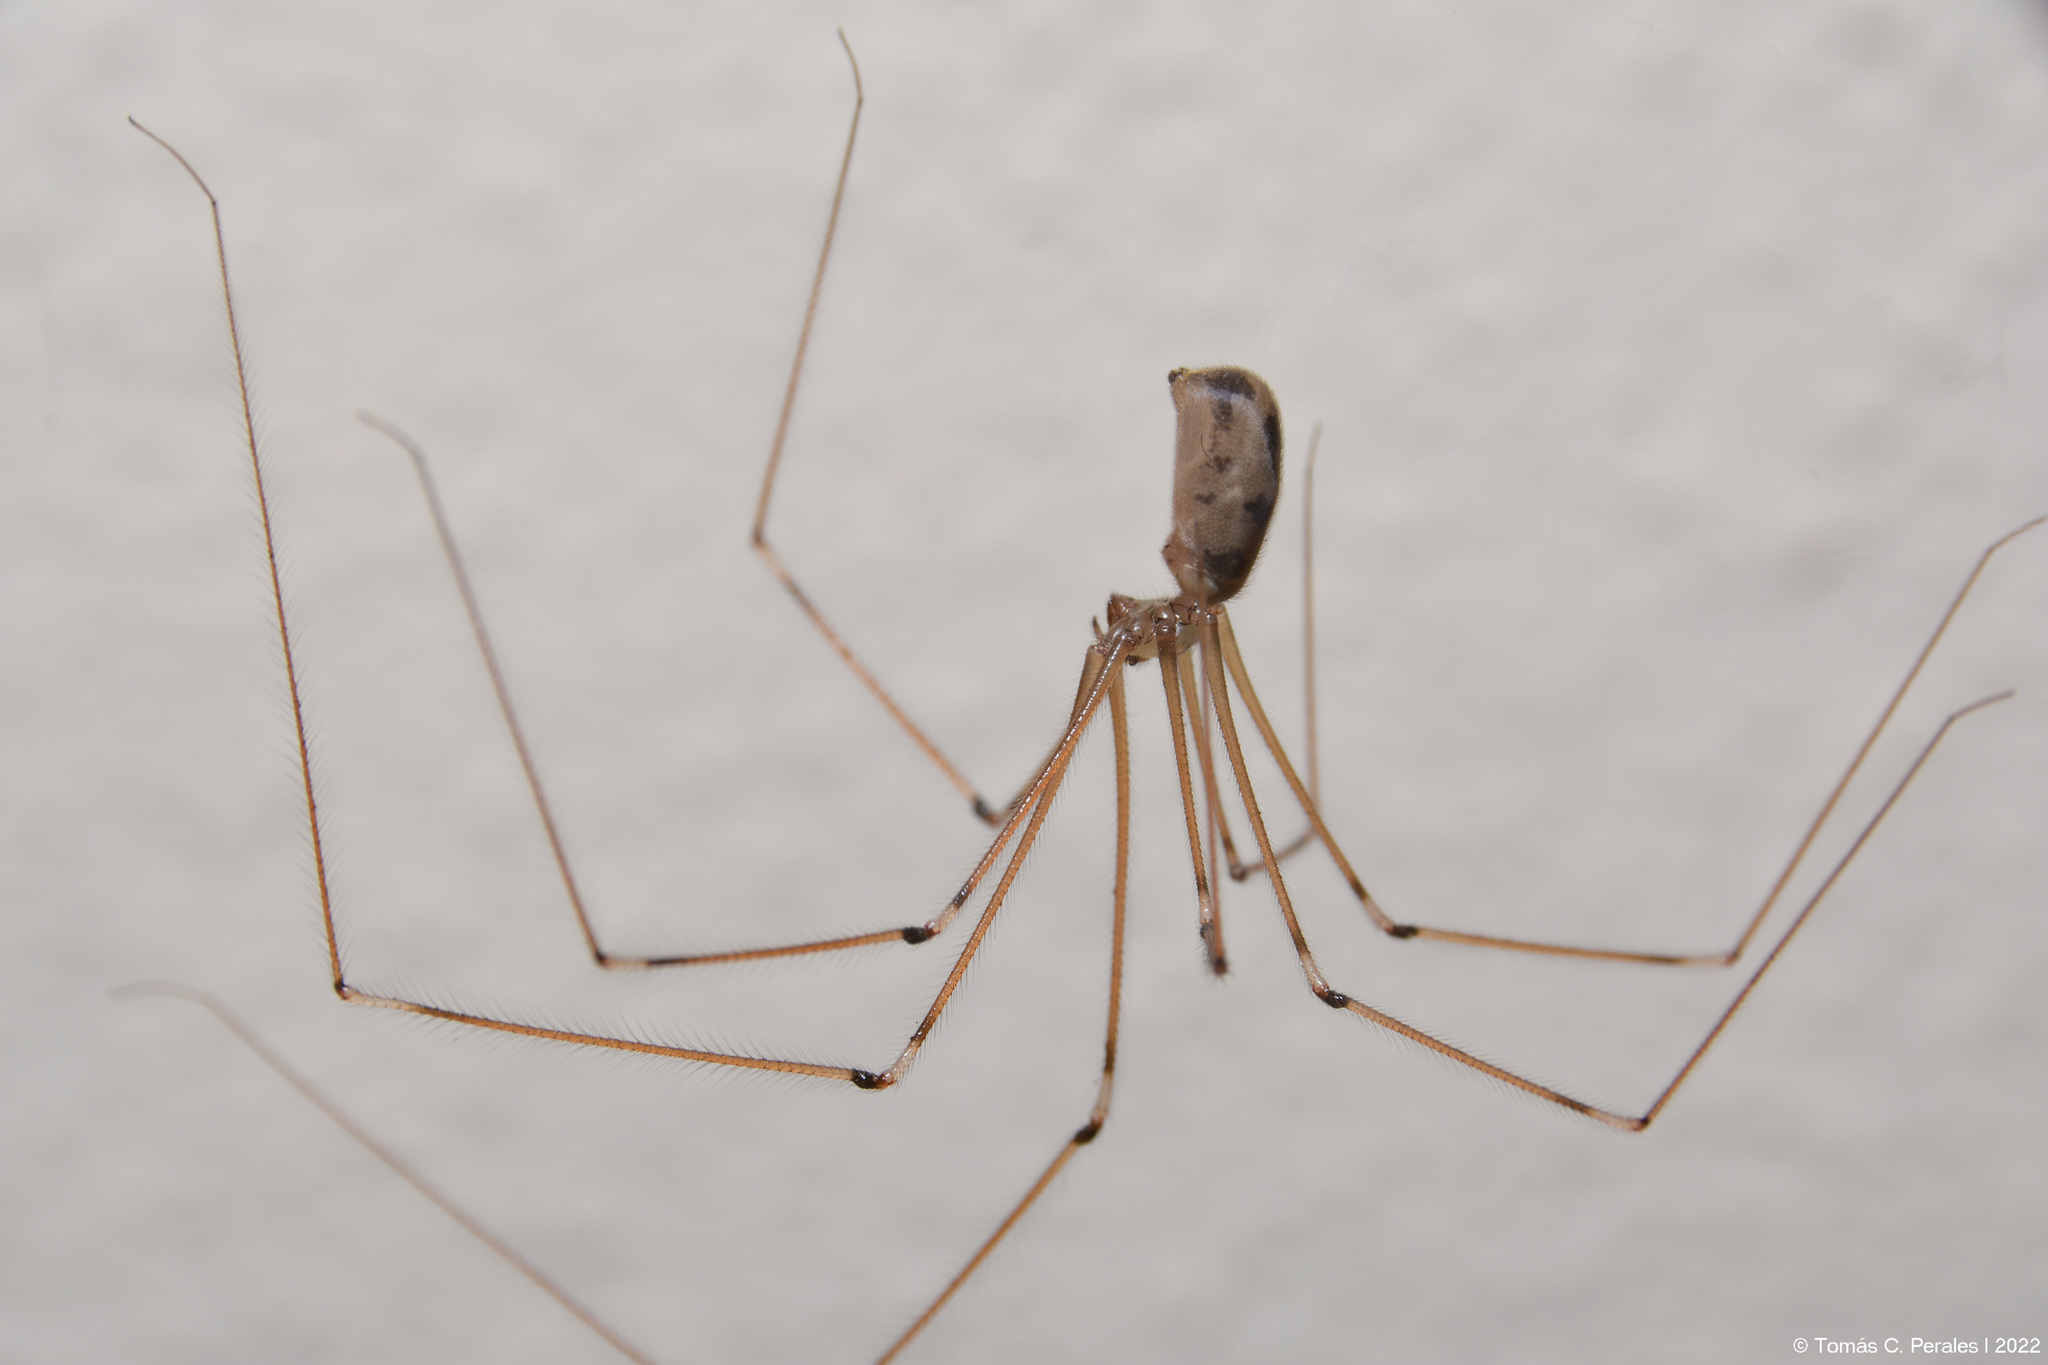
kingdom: Animalia
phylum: Arthropoda
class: Arachnida
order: Araneae
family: Pholcidae
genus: Pholcus
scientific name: Pholcus phalangioides
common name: Longbodied cellar spider
